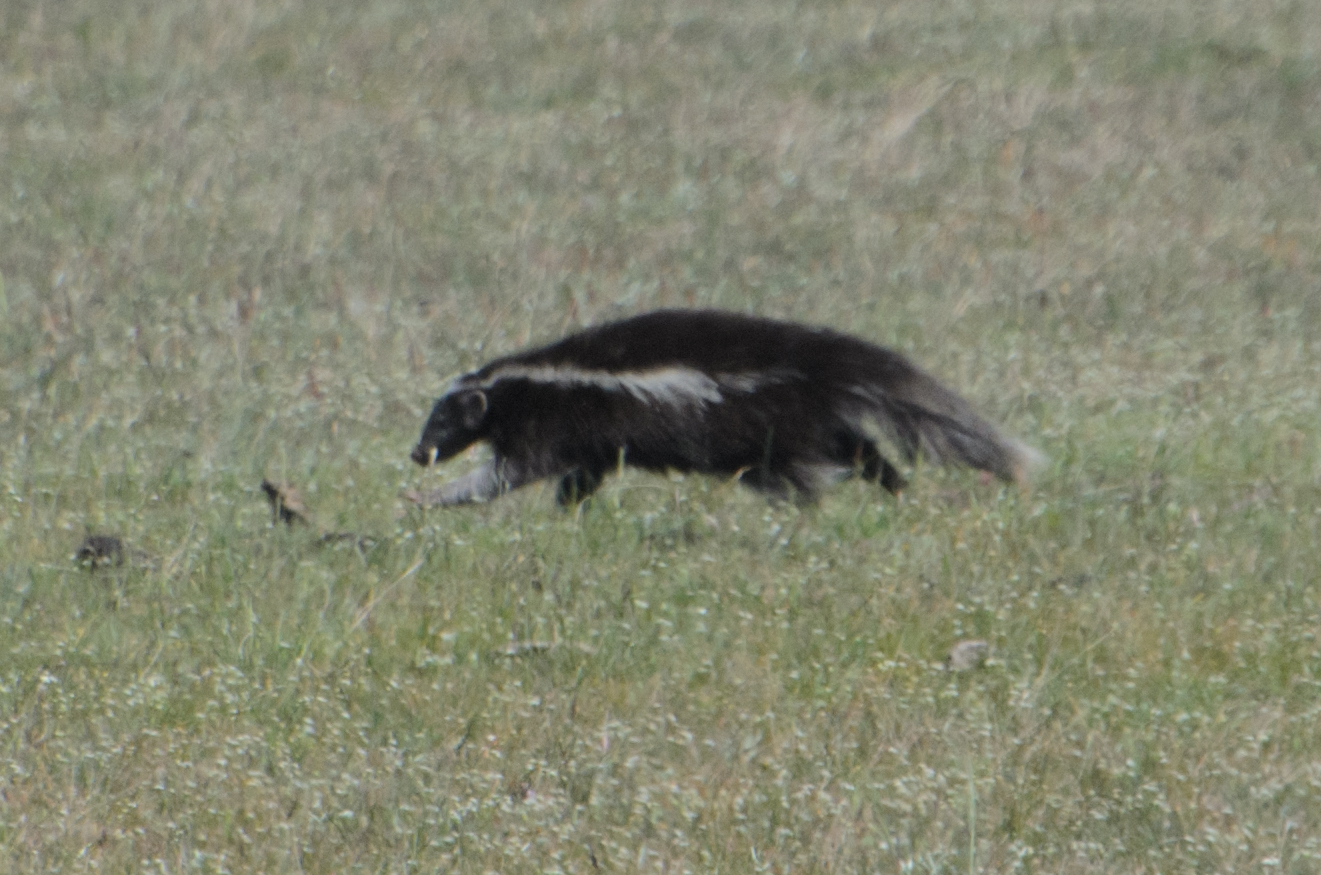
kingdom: Animalia
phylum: Chordata
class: Mammalia
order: Carnivora
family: Mephitidae
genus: Conepatus
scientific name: Conepatus chinga
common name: Molina's hog-nosed skunk
